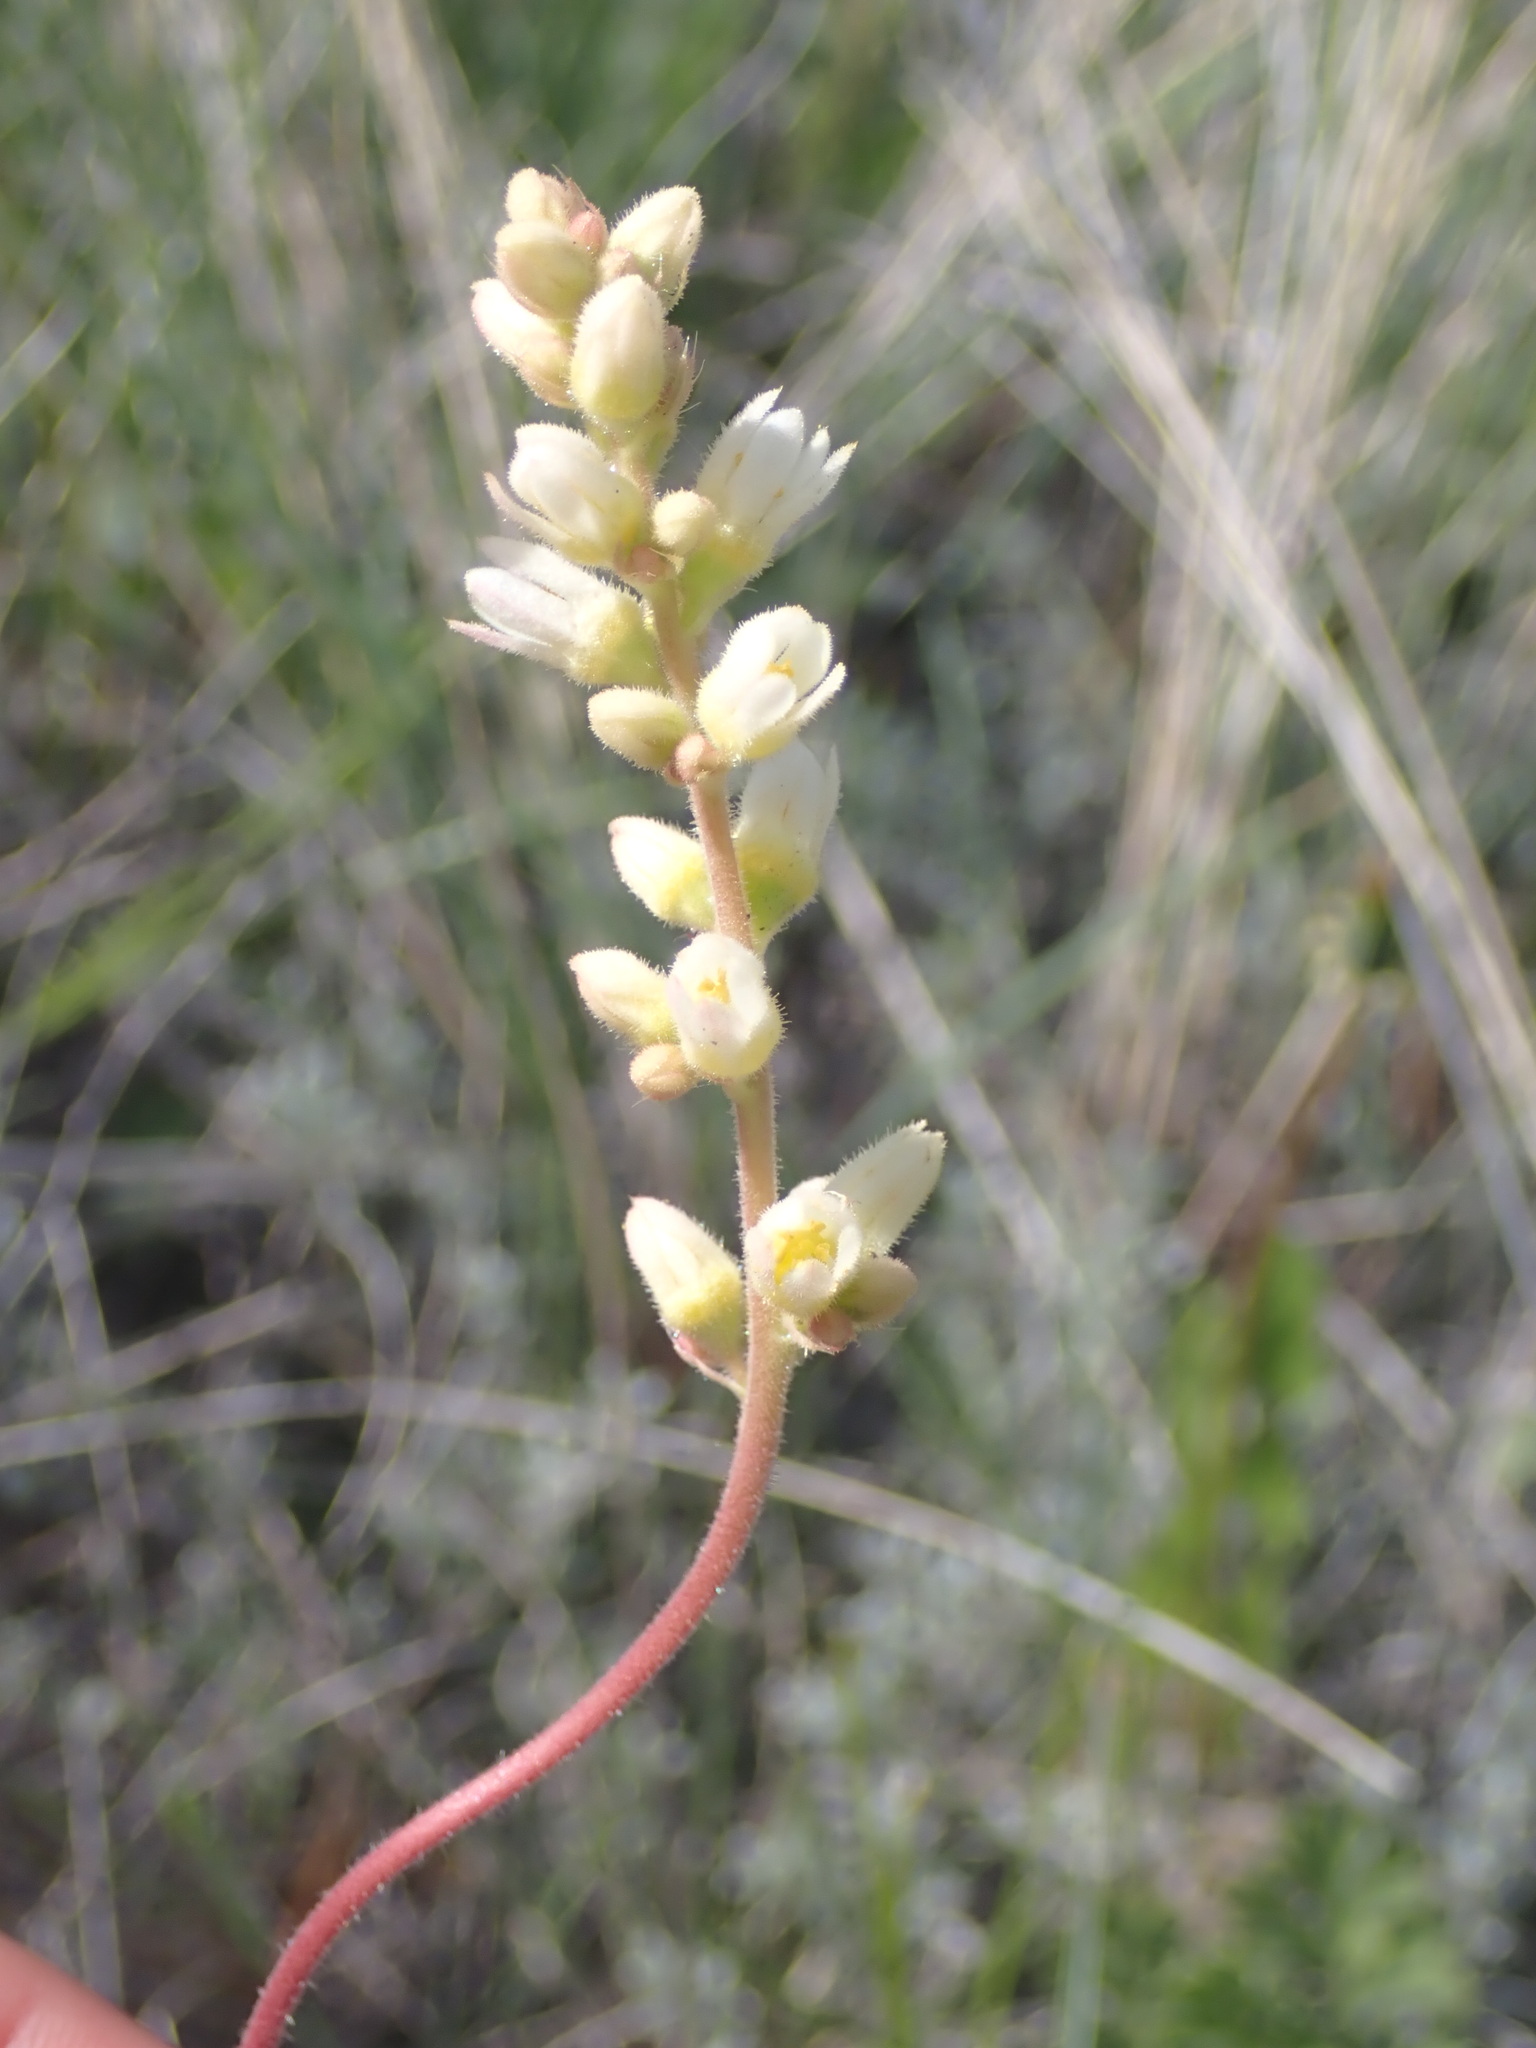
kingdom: Plantae
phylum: Tracheophyta
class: Magnoliopsida
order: Saxifragales
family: Saxifragaceae
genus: Heuchera
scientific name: Heuchera cylindrica
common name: Mat alumroot
